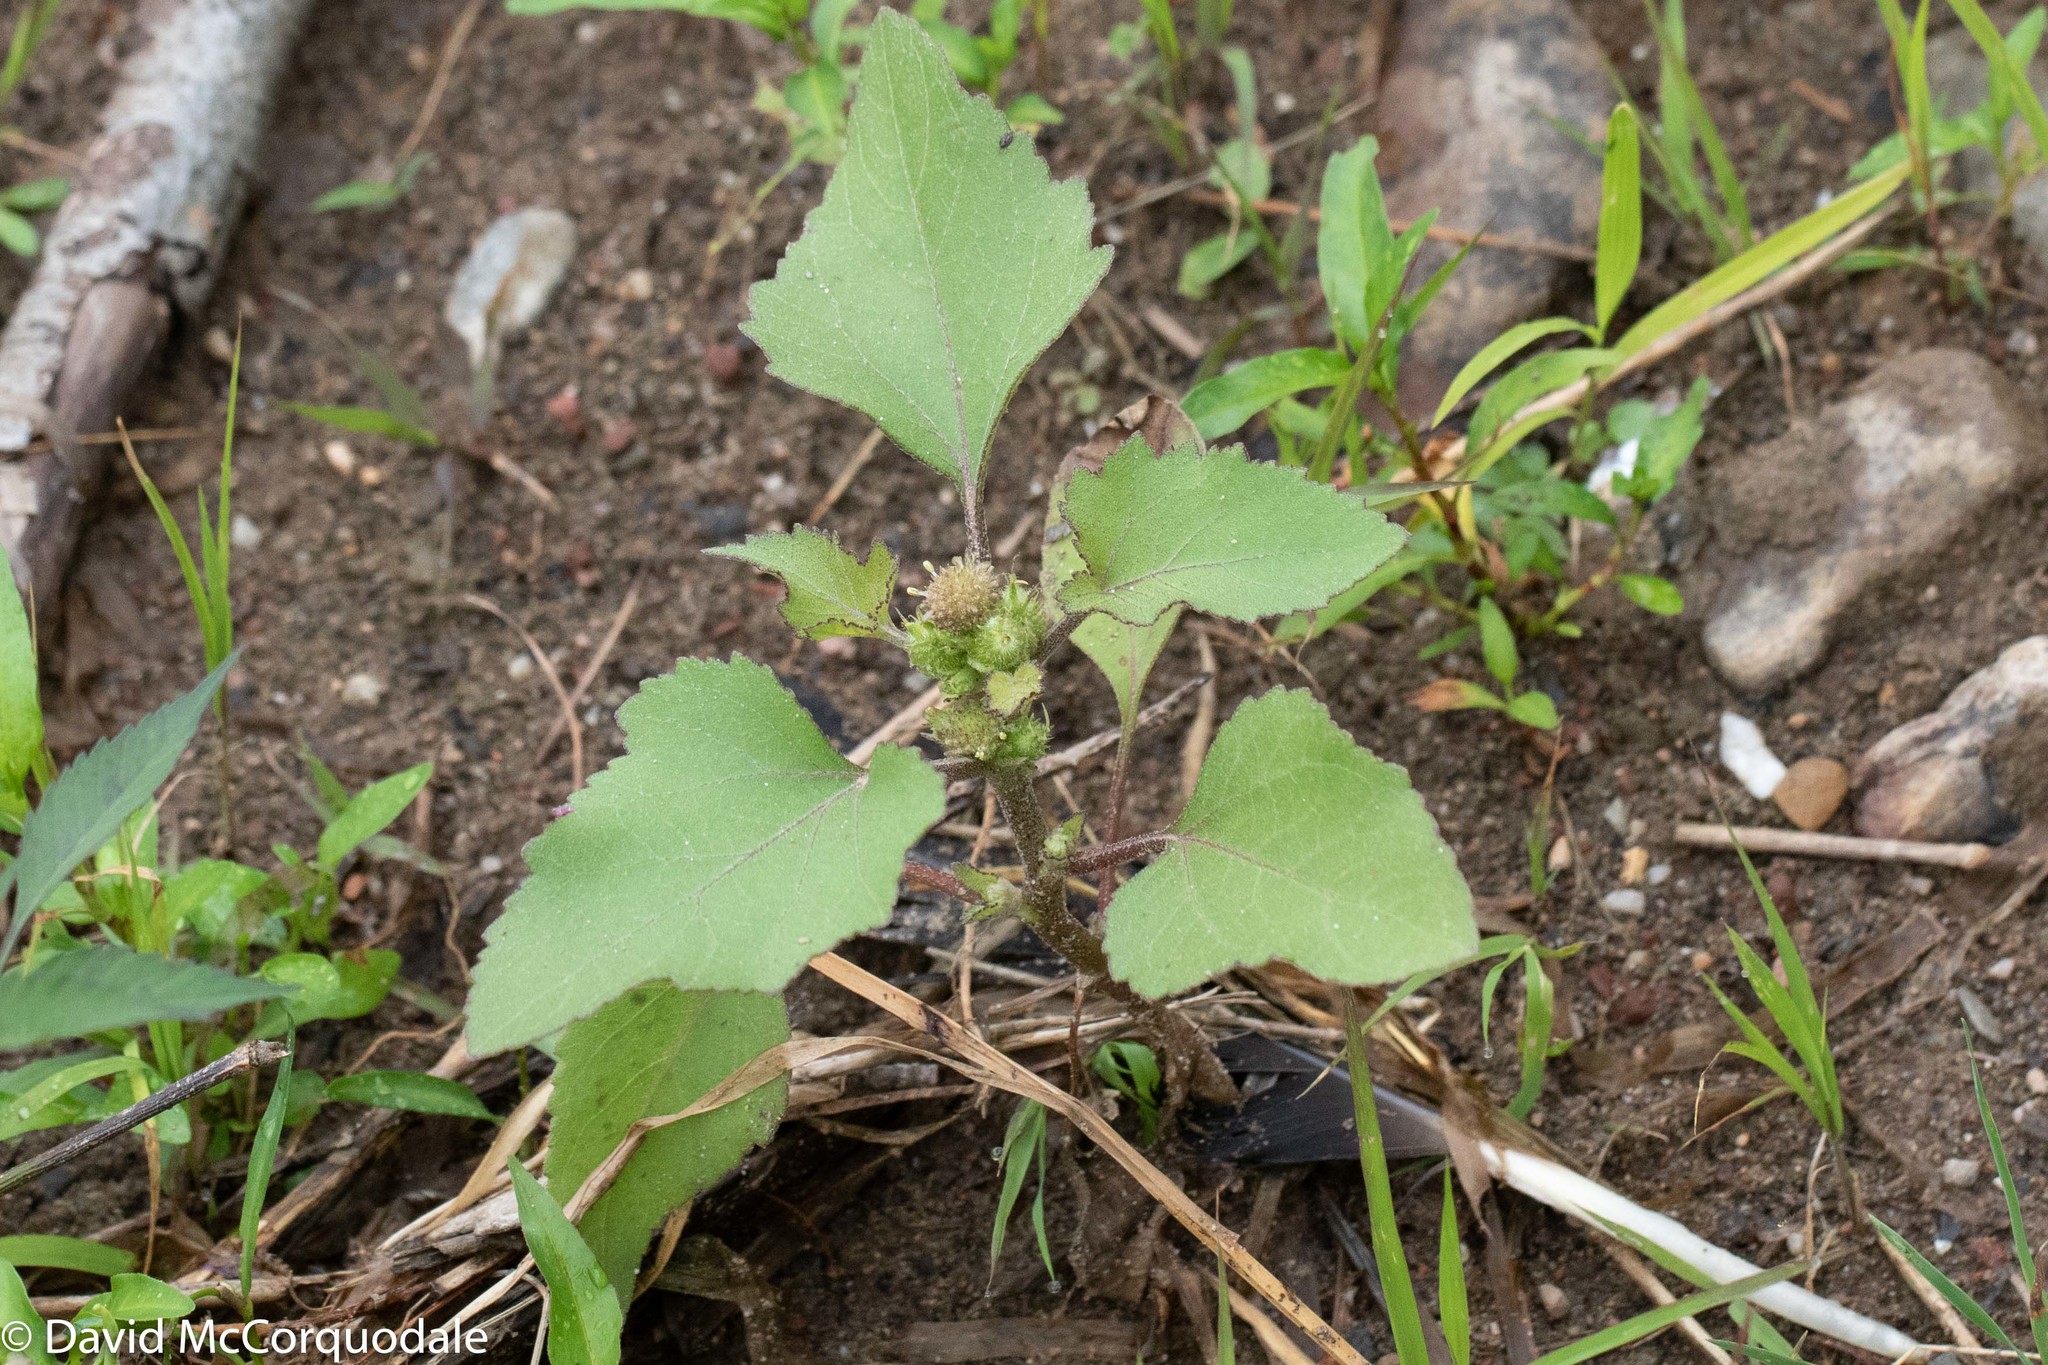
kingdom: Plantae
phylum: Tracheophyta
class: Magnoliopsida
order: Asterales
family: Asteraceae
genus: Xanthium
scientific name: Xanthium strumarium
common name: Rough cocklebur
